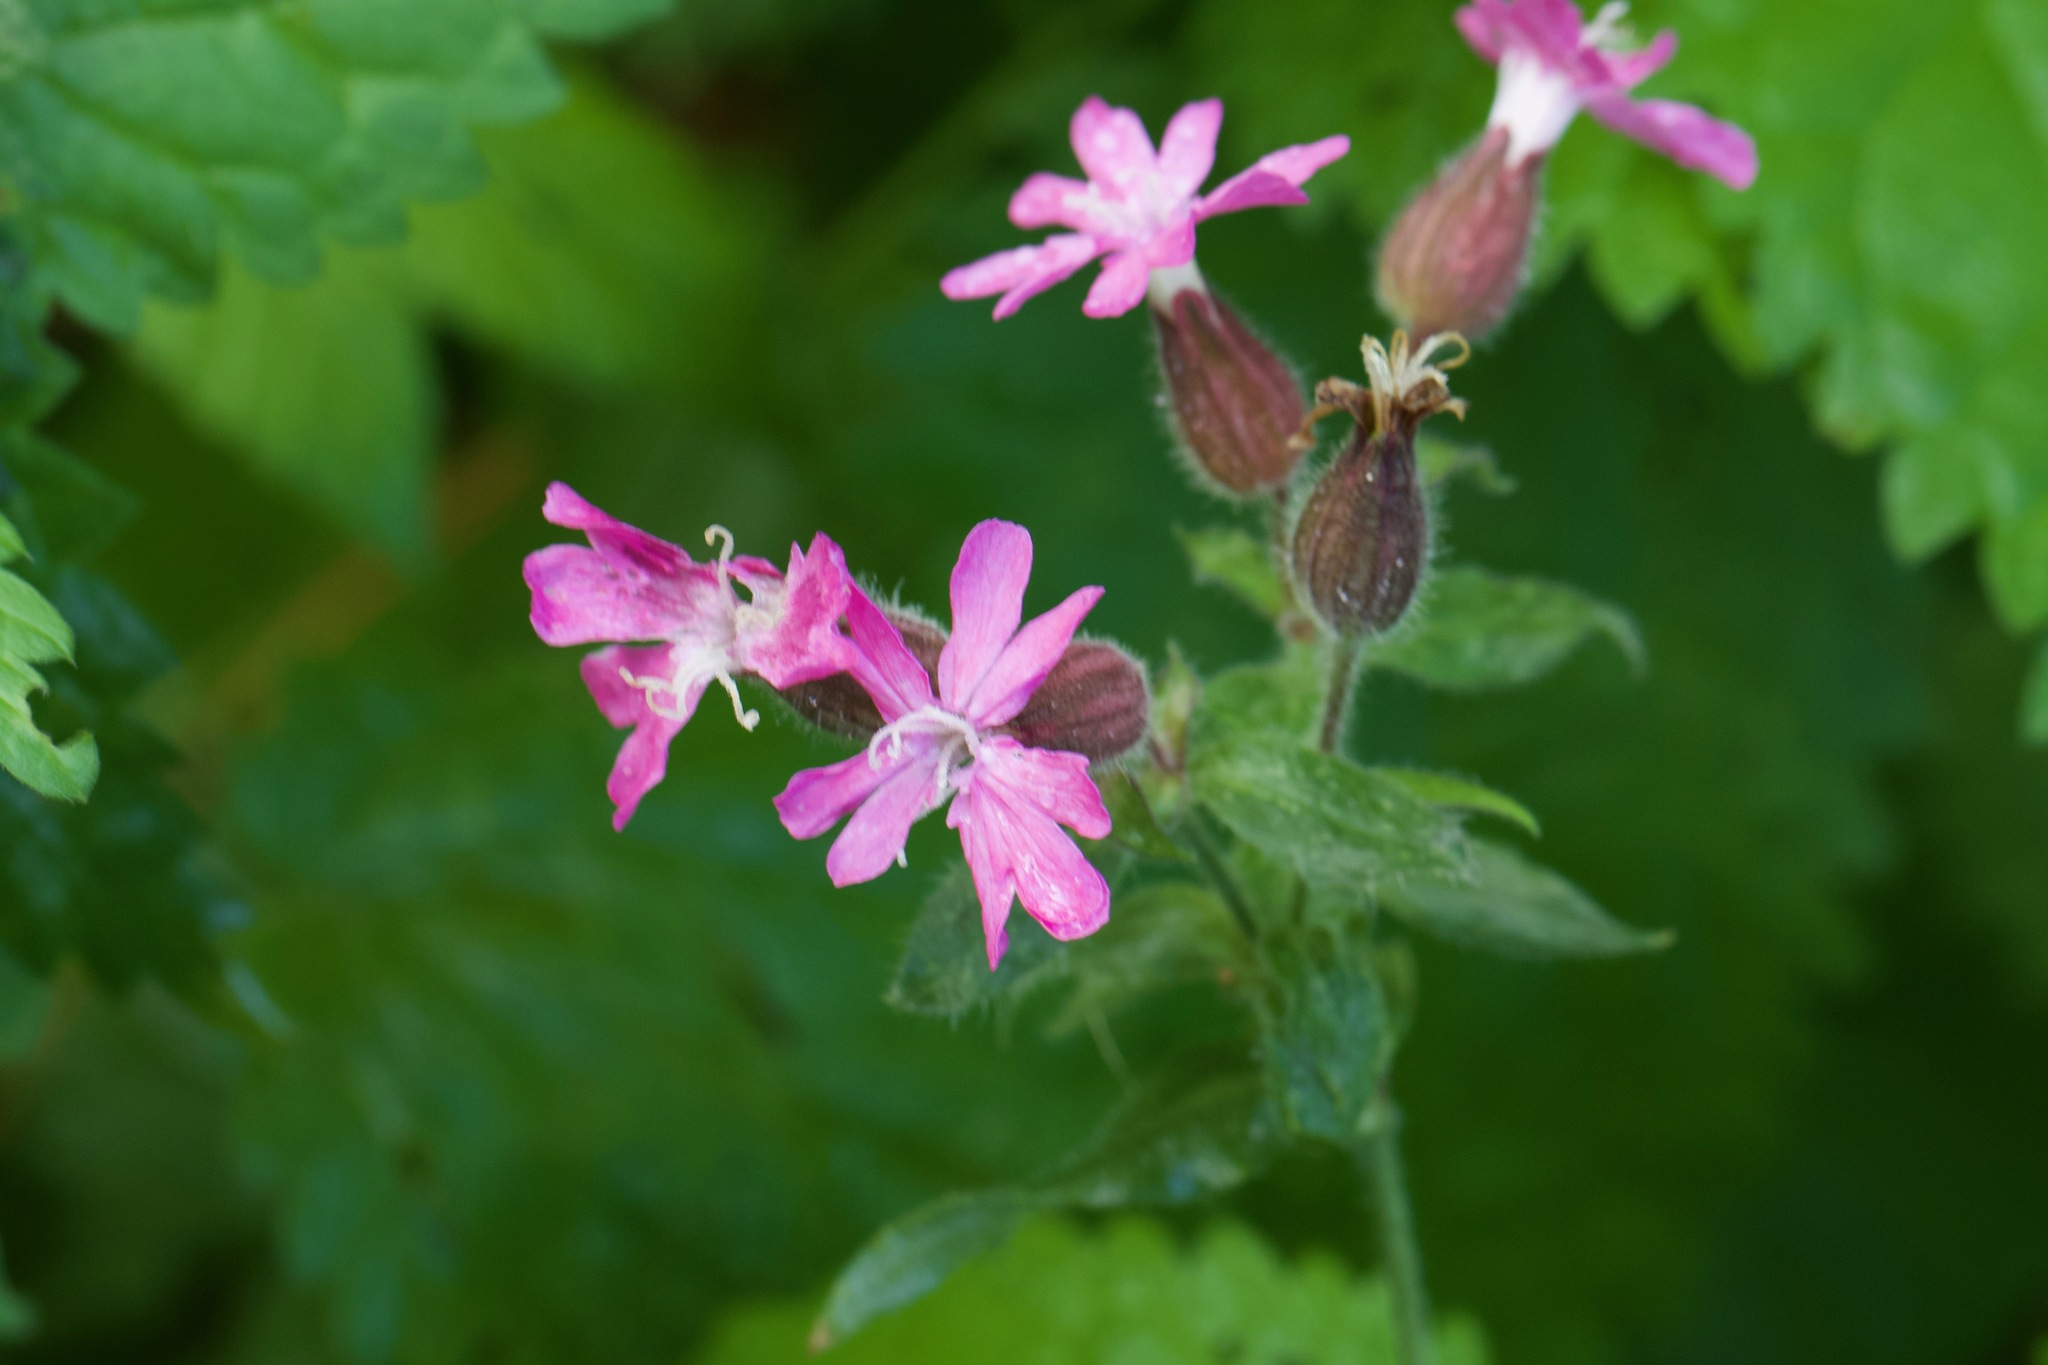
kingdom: Plantae
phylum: Tracheophyta
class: Magnoliopsida
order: Caryophyllales
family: Caryophyllaceae
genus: Silene
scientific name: Silene dioica
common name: Red campion
